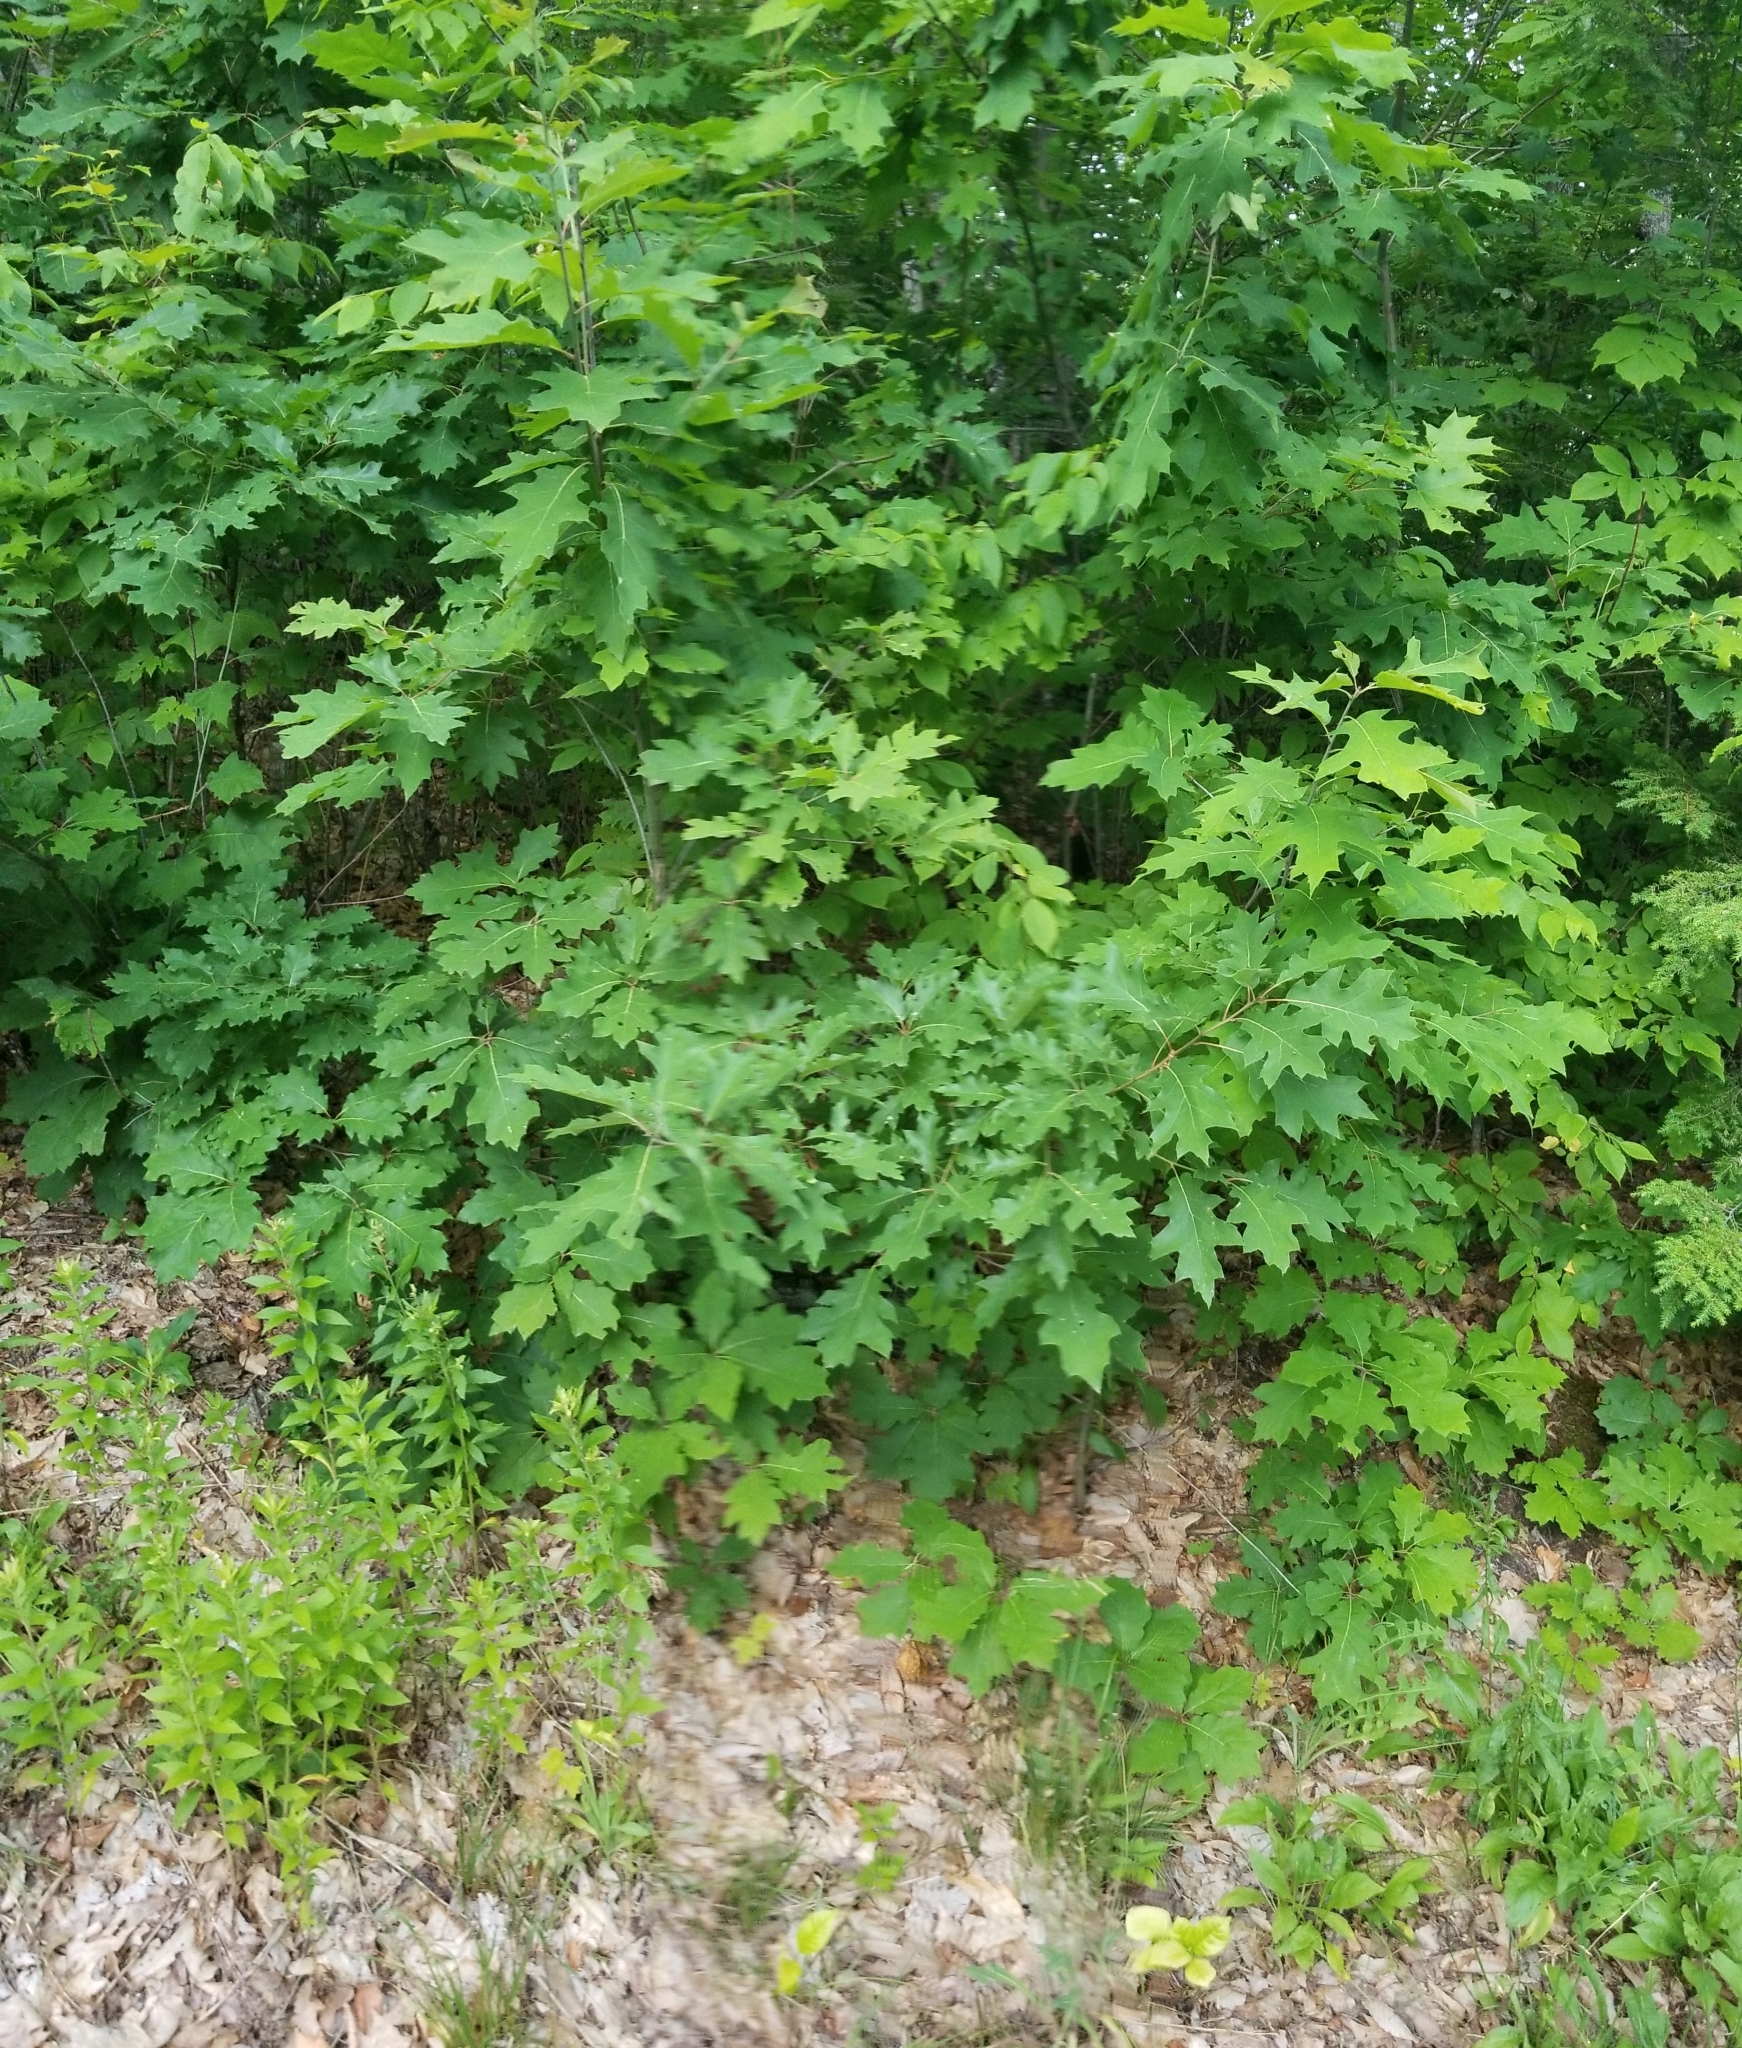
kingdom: Plantae
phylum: Tracheophyta
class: Magnoliopsida
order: Fagales
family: Fagaceae
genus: Quercus
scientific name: Quercus rubra
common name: Red oak
